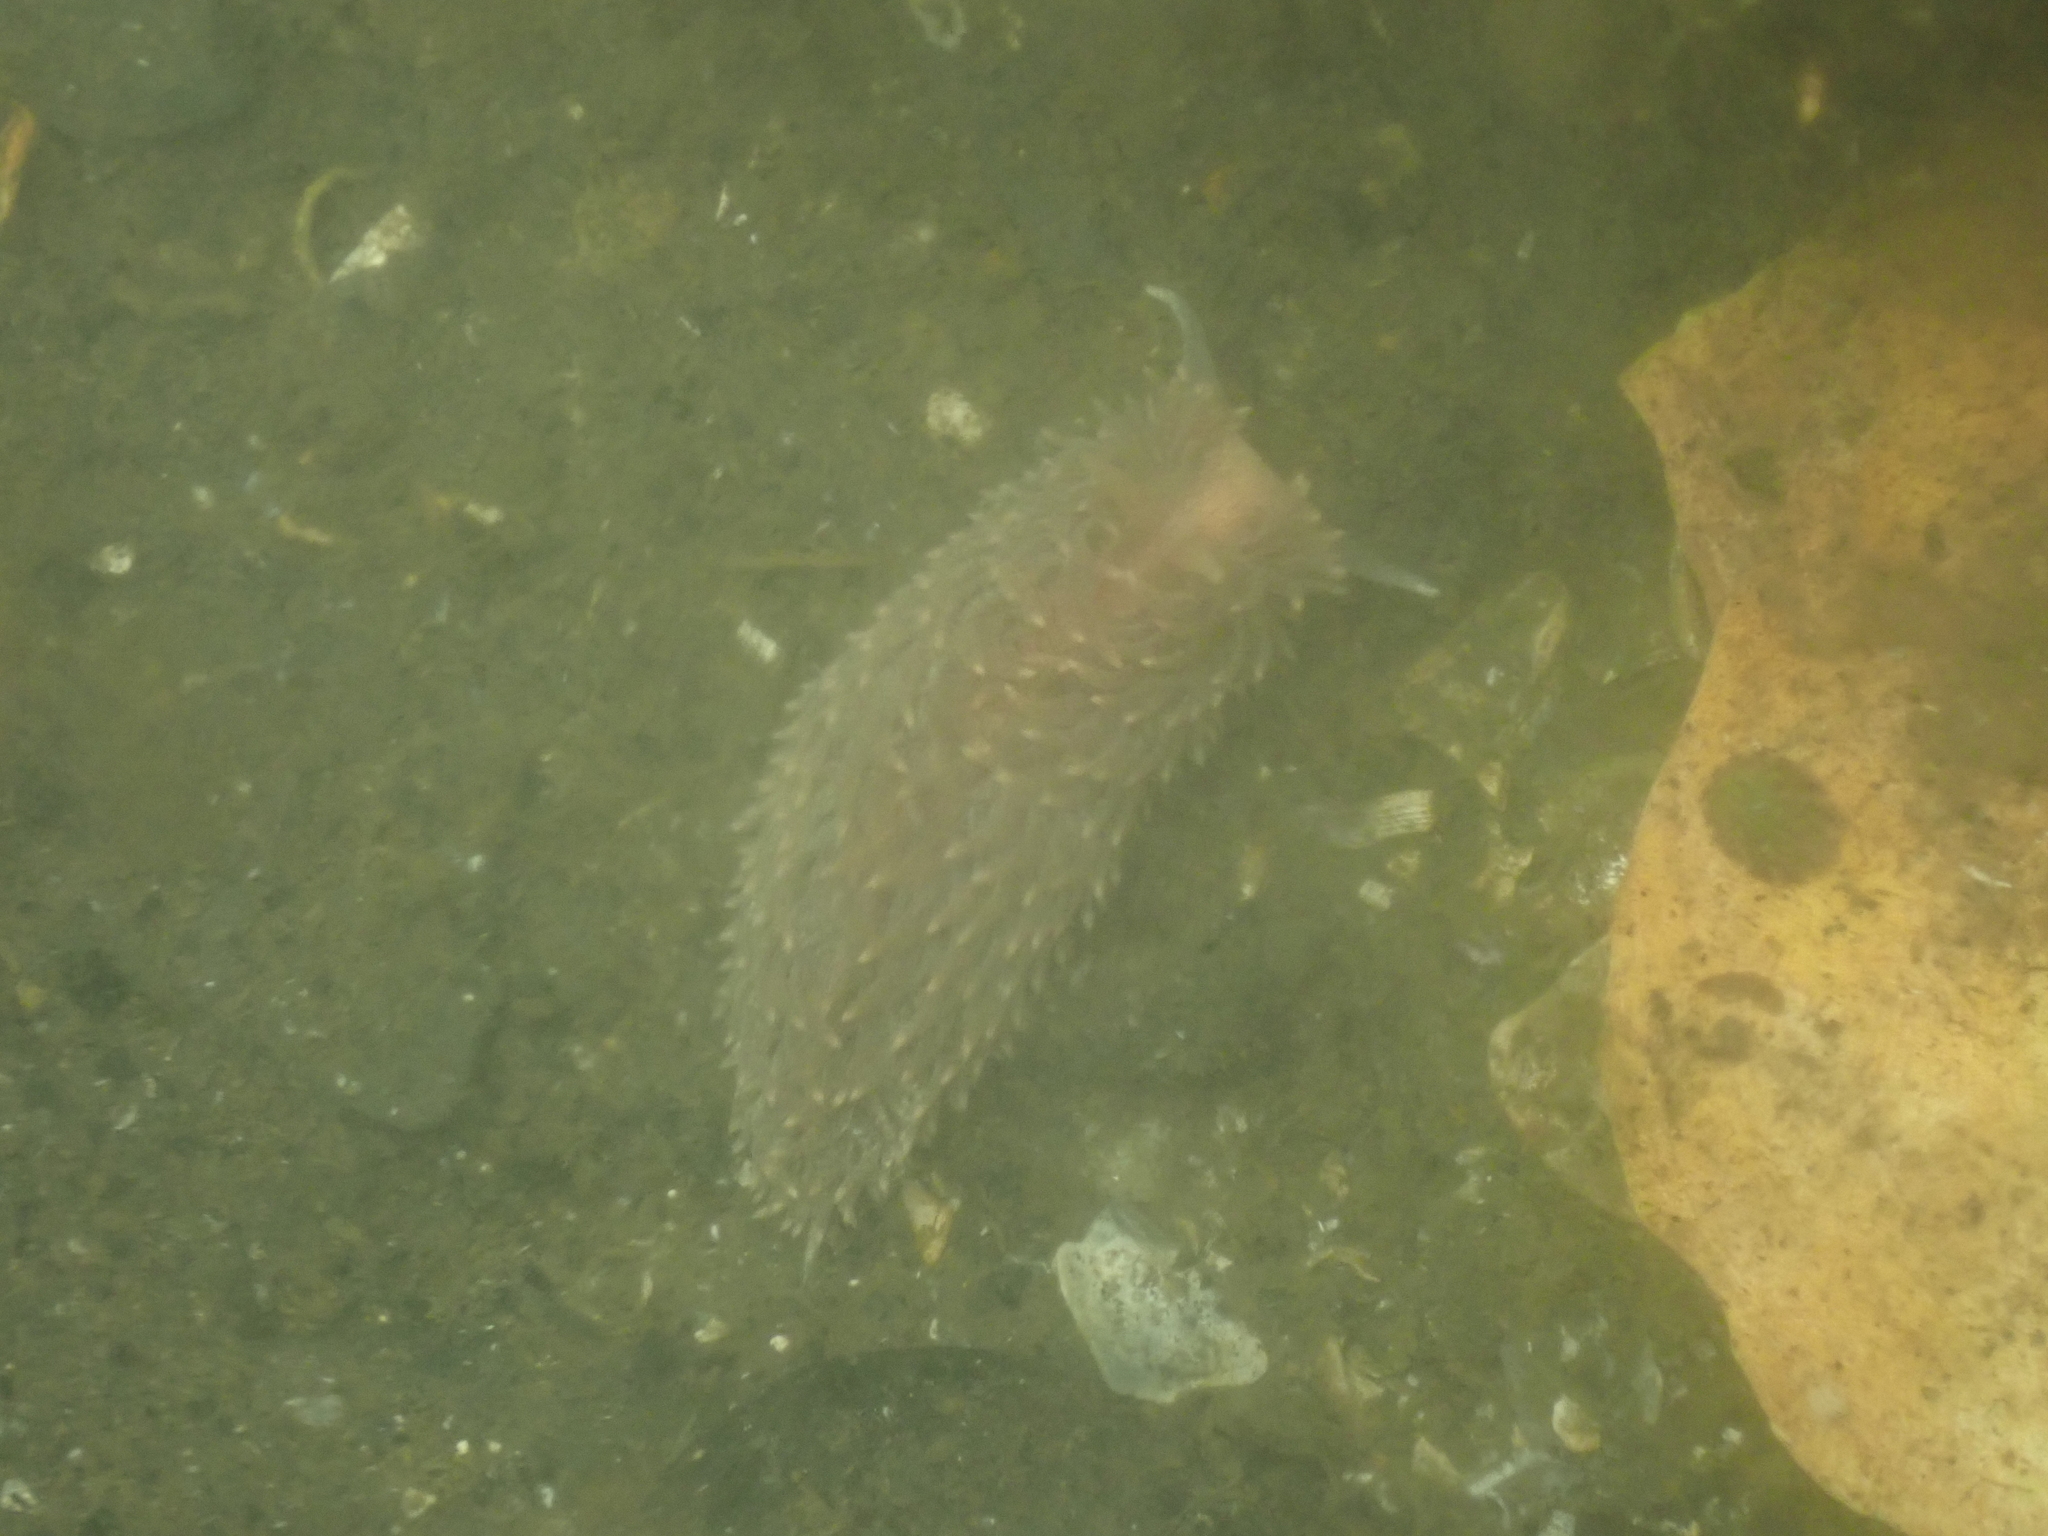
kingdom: Animalia
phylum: Mollusca
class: Gastropoda
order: Nudibranchia
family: Aeolidiidae
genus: Aeolidia
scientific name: Aeolidia papillosa
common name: Common grey sea slug
